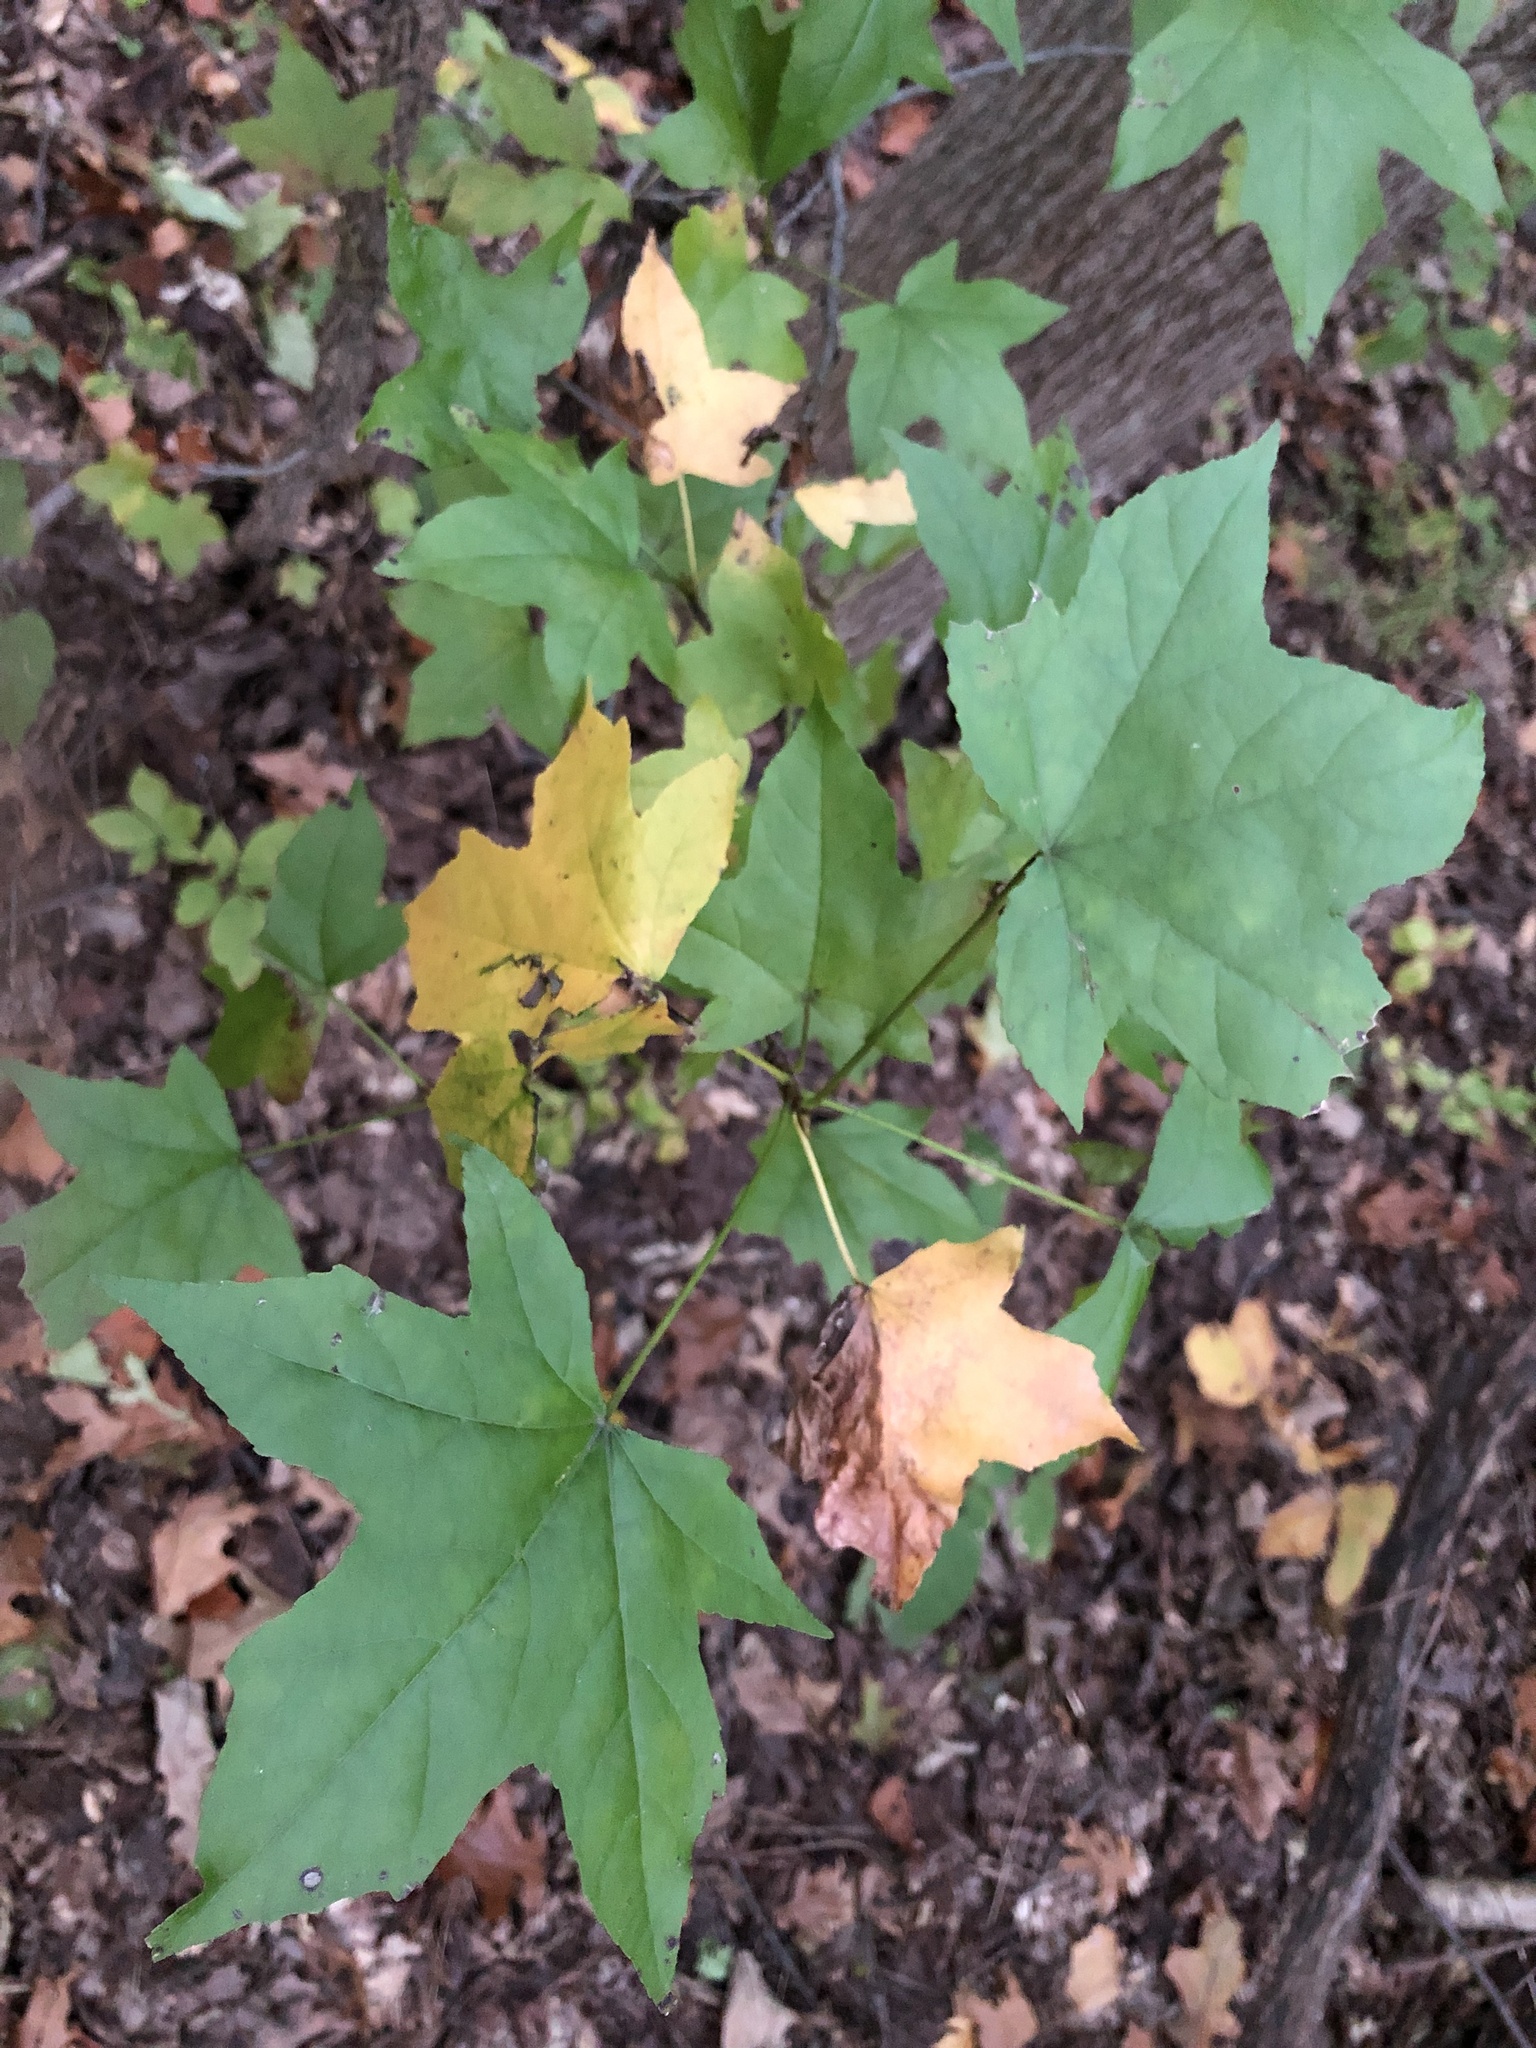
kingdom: Plantae
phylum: Tracheophyta
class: Magnoliopsida
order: Saxifragales
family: Altingiaceae
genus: Liquidambar
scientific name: Liquidambar styraciflua
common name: Sweet gum
